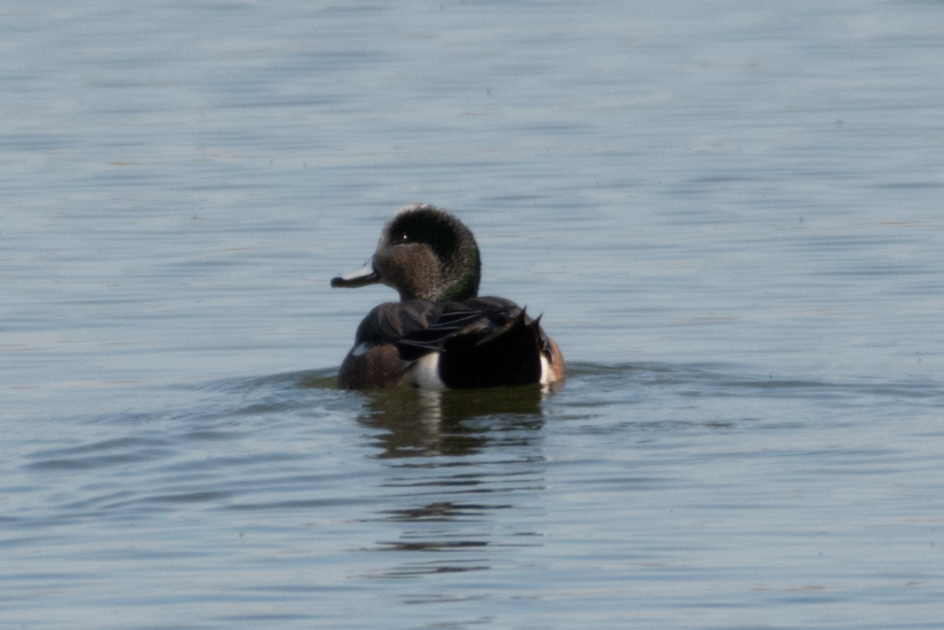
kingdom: Animalia
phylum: Chordata
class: Aves
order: Anseriformes
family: Anatidae
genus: Mareca
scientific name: Mareca americana
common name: American wigeon
